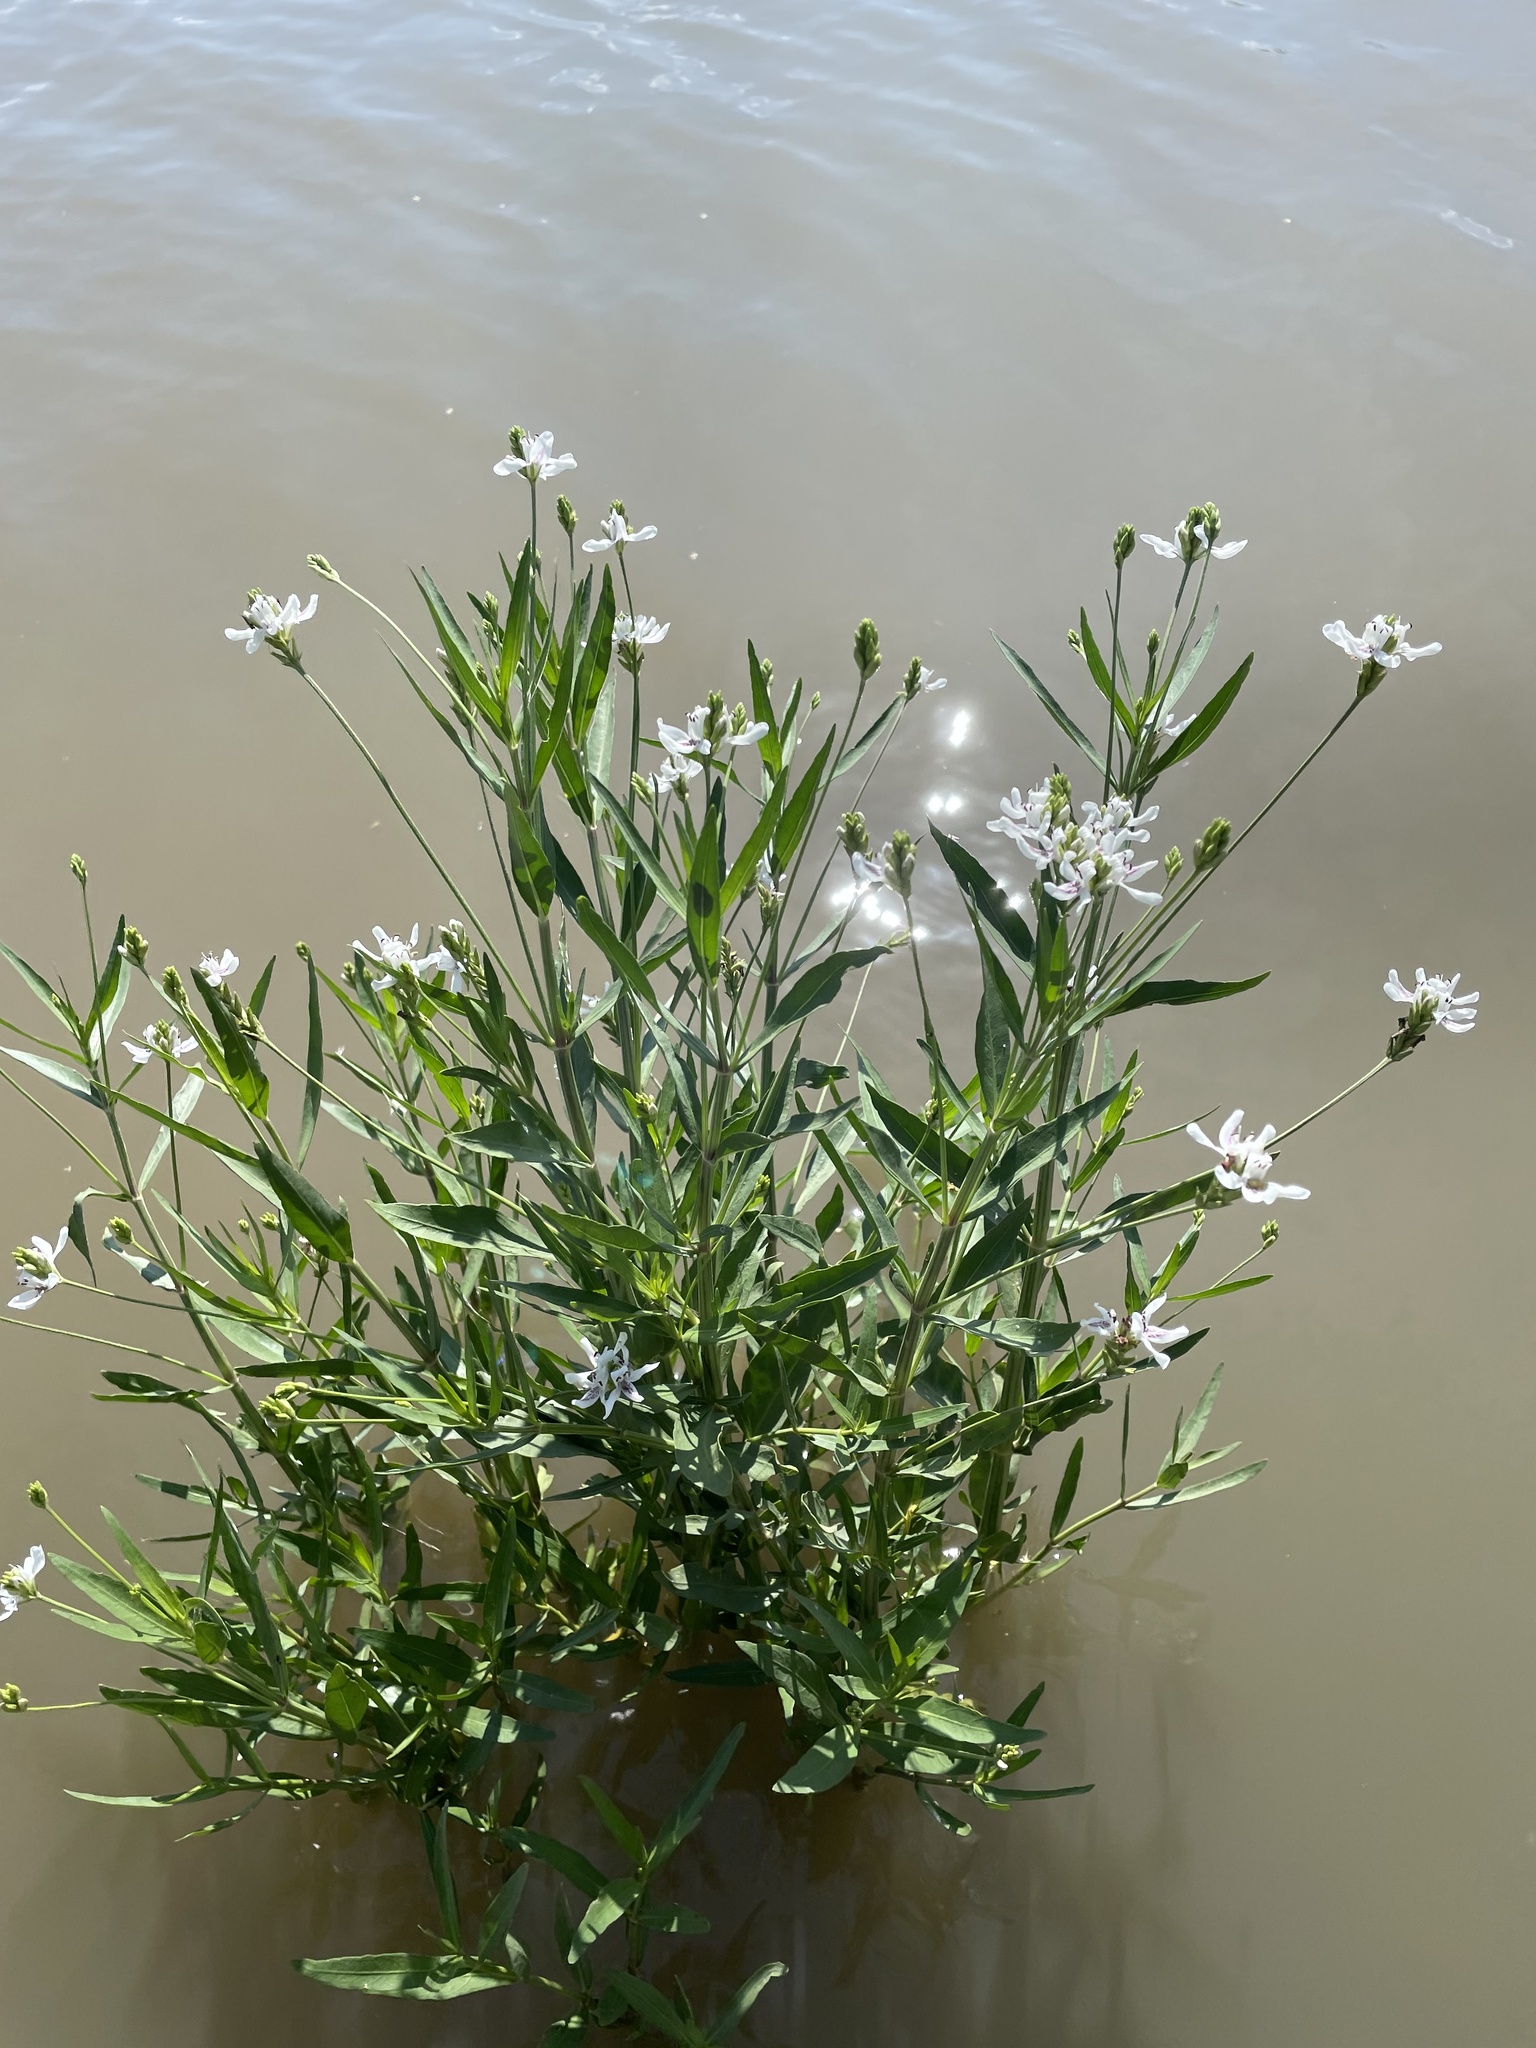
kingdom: Plantae
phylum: Tracheophyta
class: Magnoliopsida
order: Lamiales
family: Acanthaceae
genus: Dianthera
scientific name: Dianthera americana
